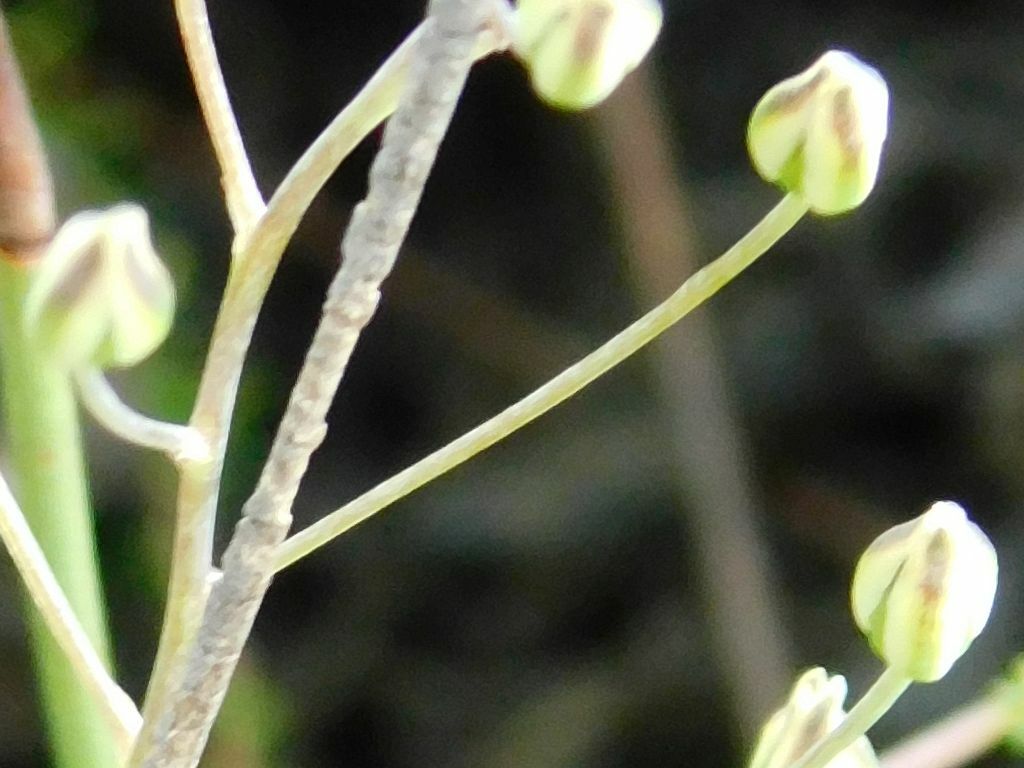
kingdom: Plantae
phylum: Tracheophyta
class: Liliopsida
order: Asparagales
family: Asparagaceae
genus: Eriospermum
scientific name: Eriospermum nanum
